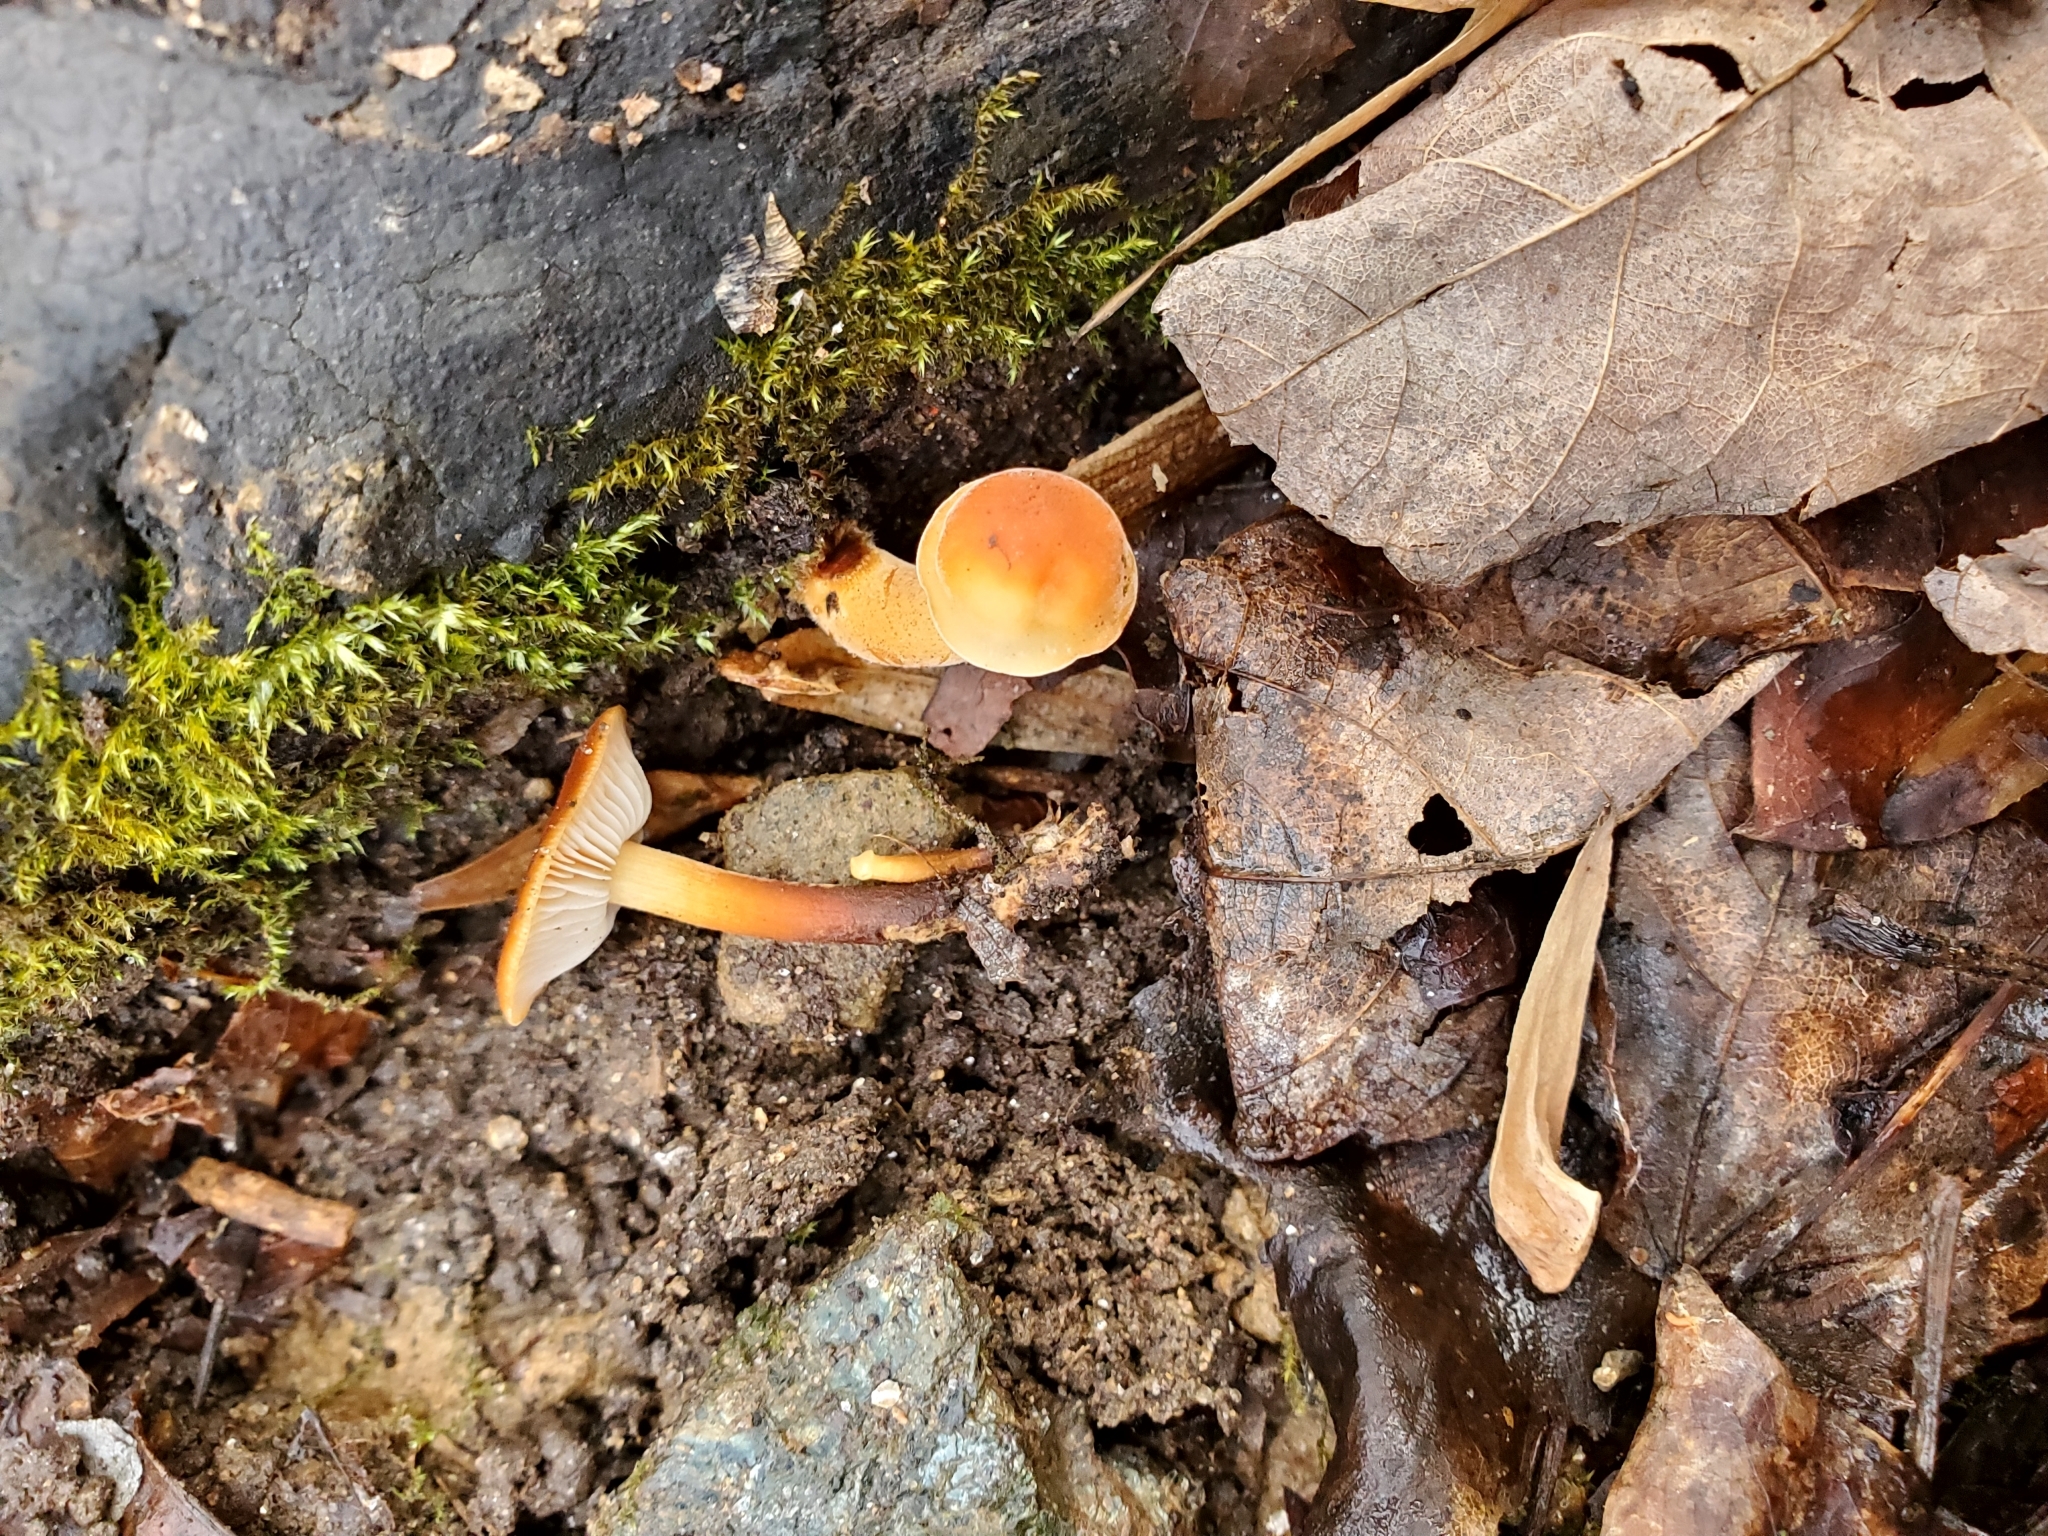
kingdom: Fungi
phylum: Basidiomycota
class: Agaricomycetes
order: Agaricales
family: Physalacriaceae
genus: Flammulina
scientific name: Flammulina velutipes
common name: Velvet shank
